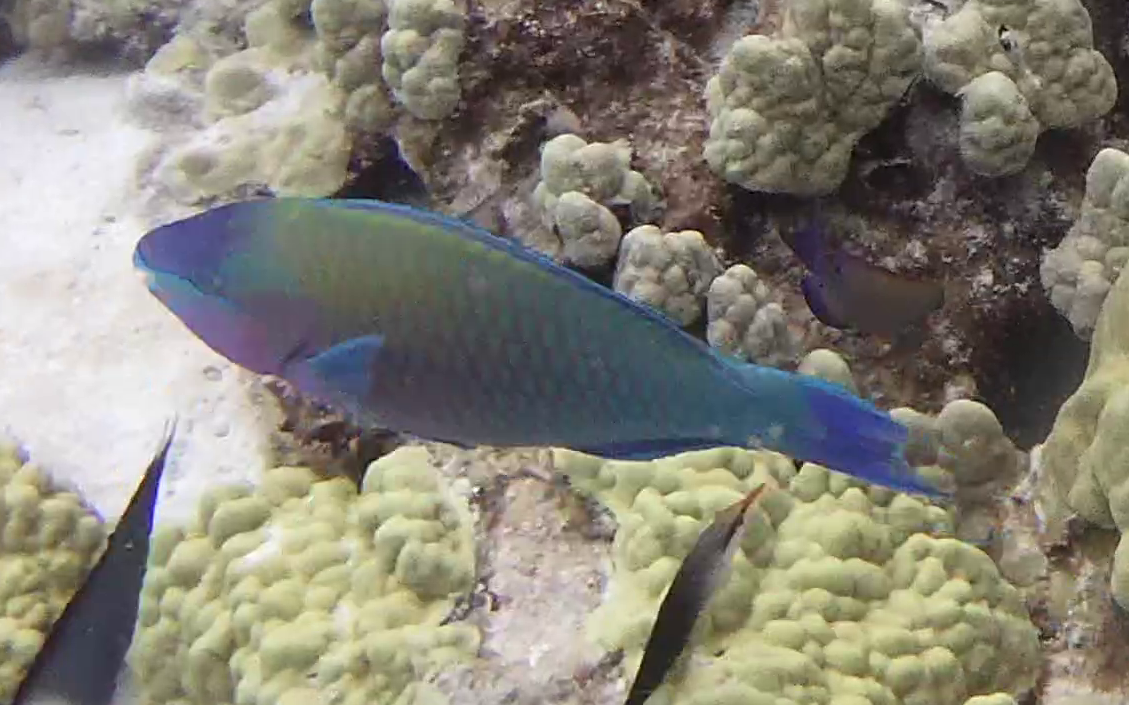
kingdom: Animalia
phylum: Chordata
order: Perciformes
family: Scaridae
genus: Scarus
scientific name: Scarus psittacus
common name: Palenose parrotfish
